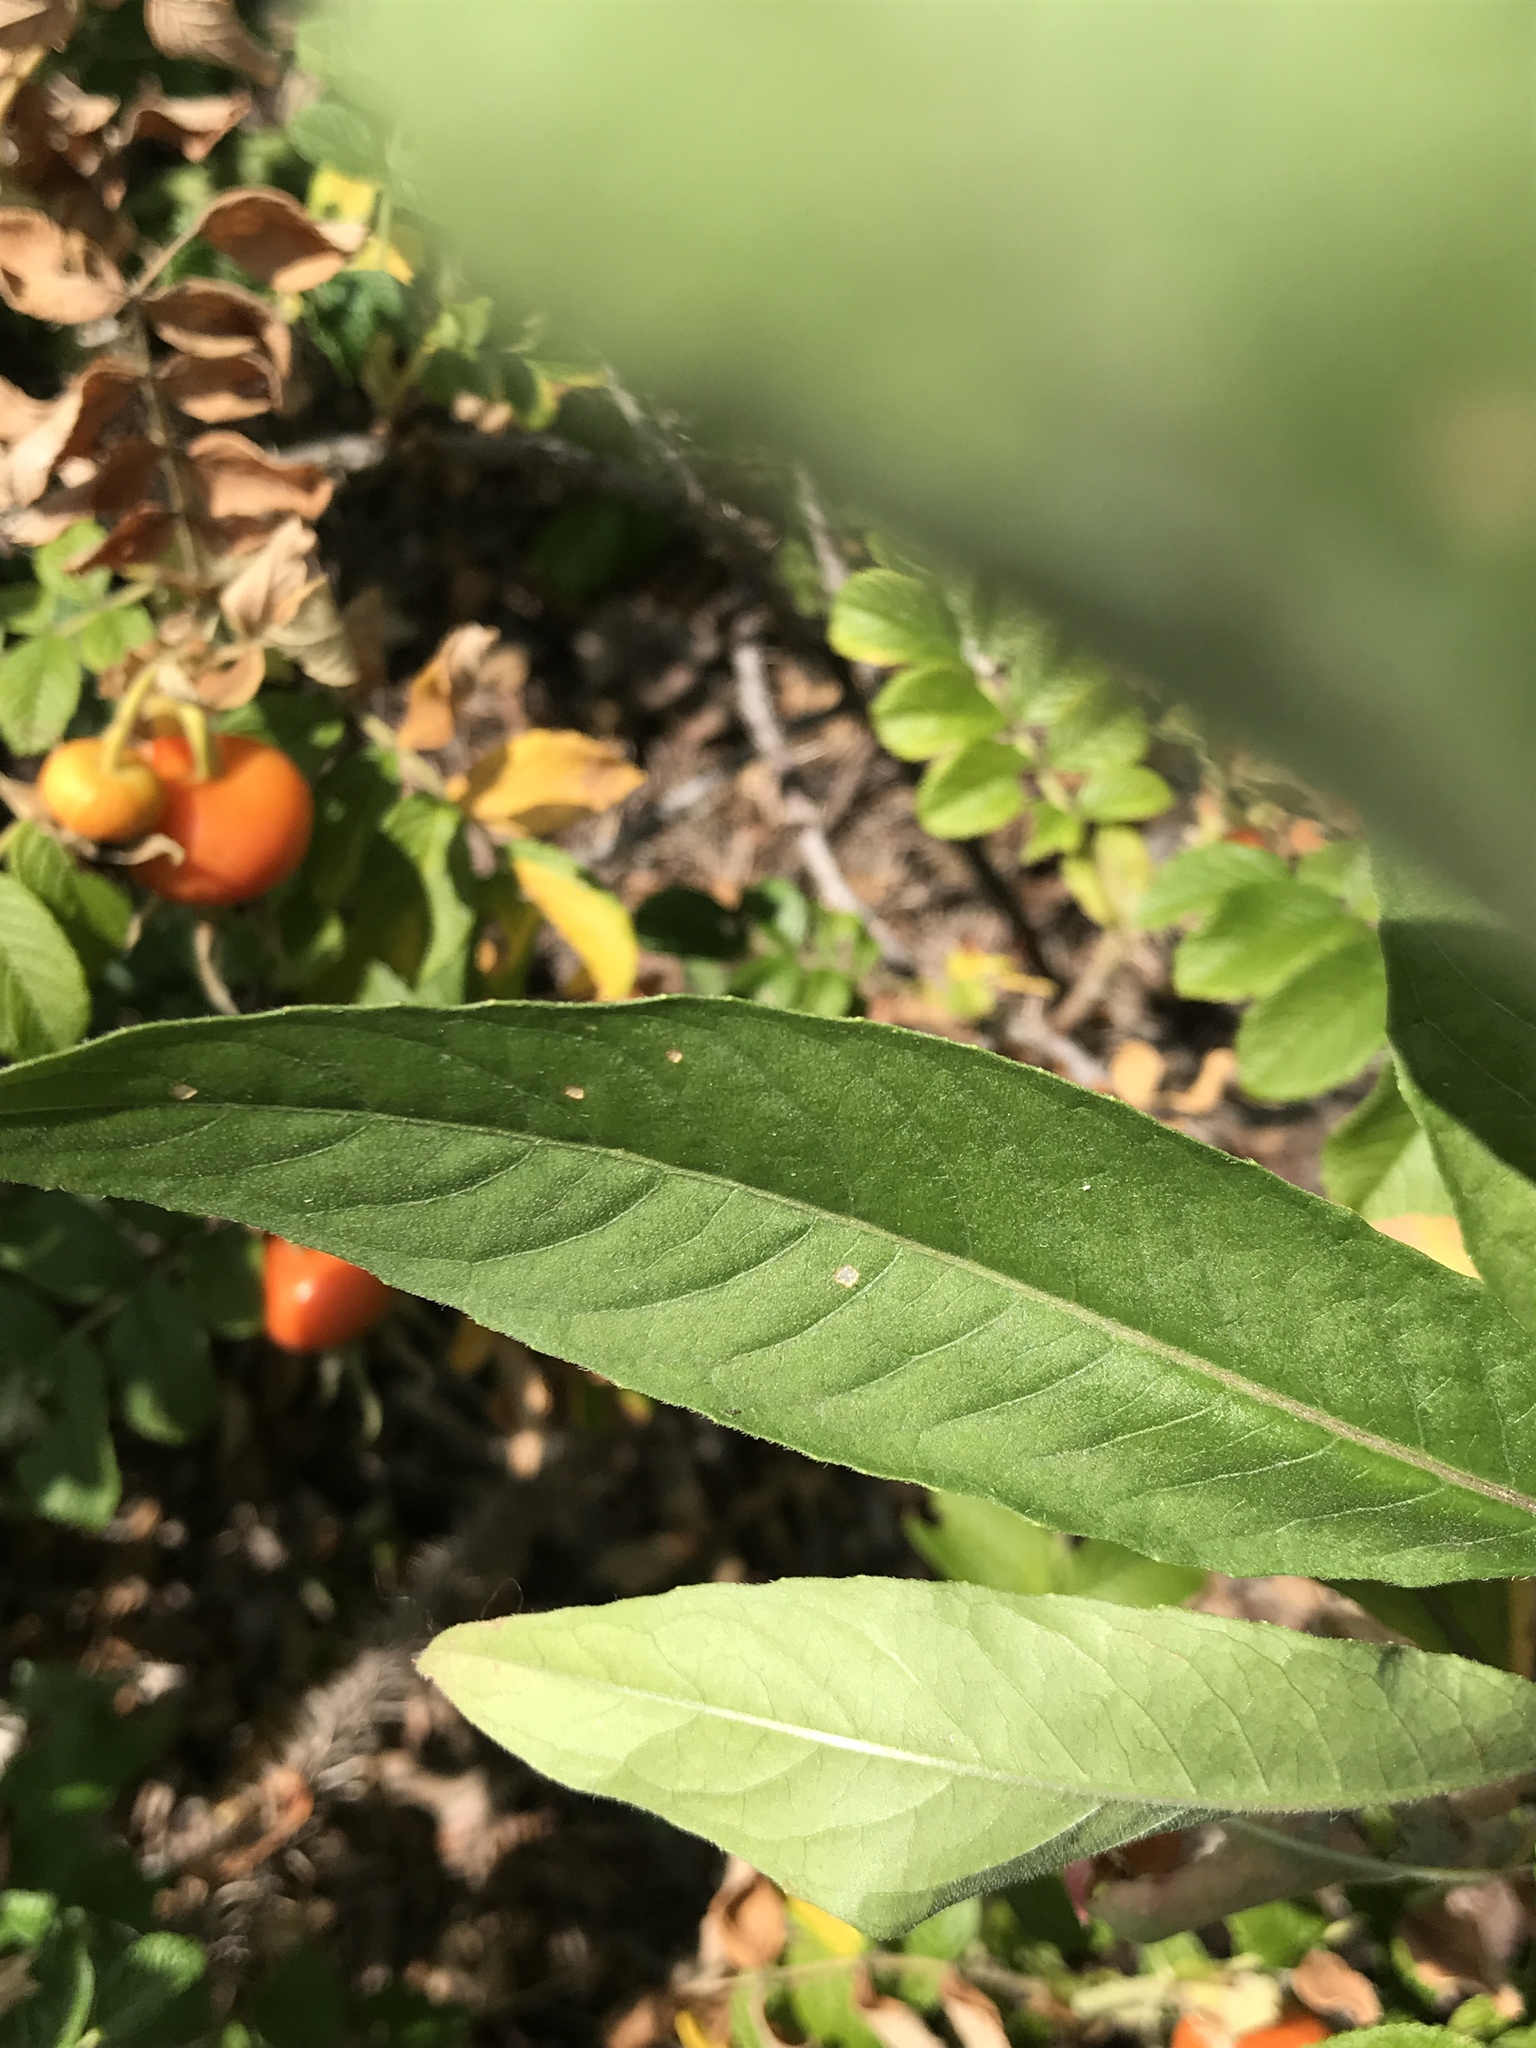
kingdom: Plantae
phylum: Tracheophyta
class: Magnoliopsida
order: Myrtales
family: Onagraceae
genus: Oenothera
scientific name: Oenothera biennis
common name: Common evening-primrose
